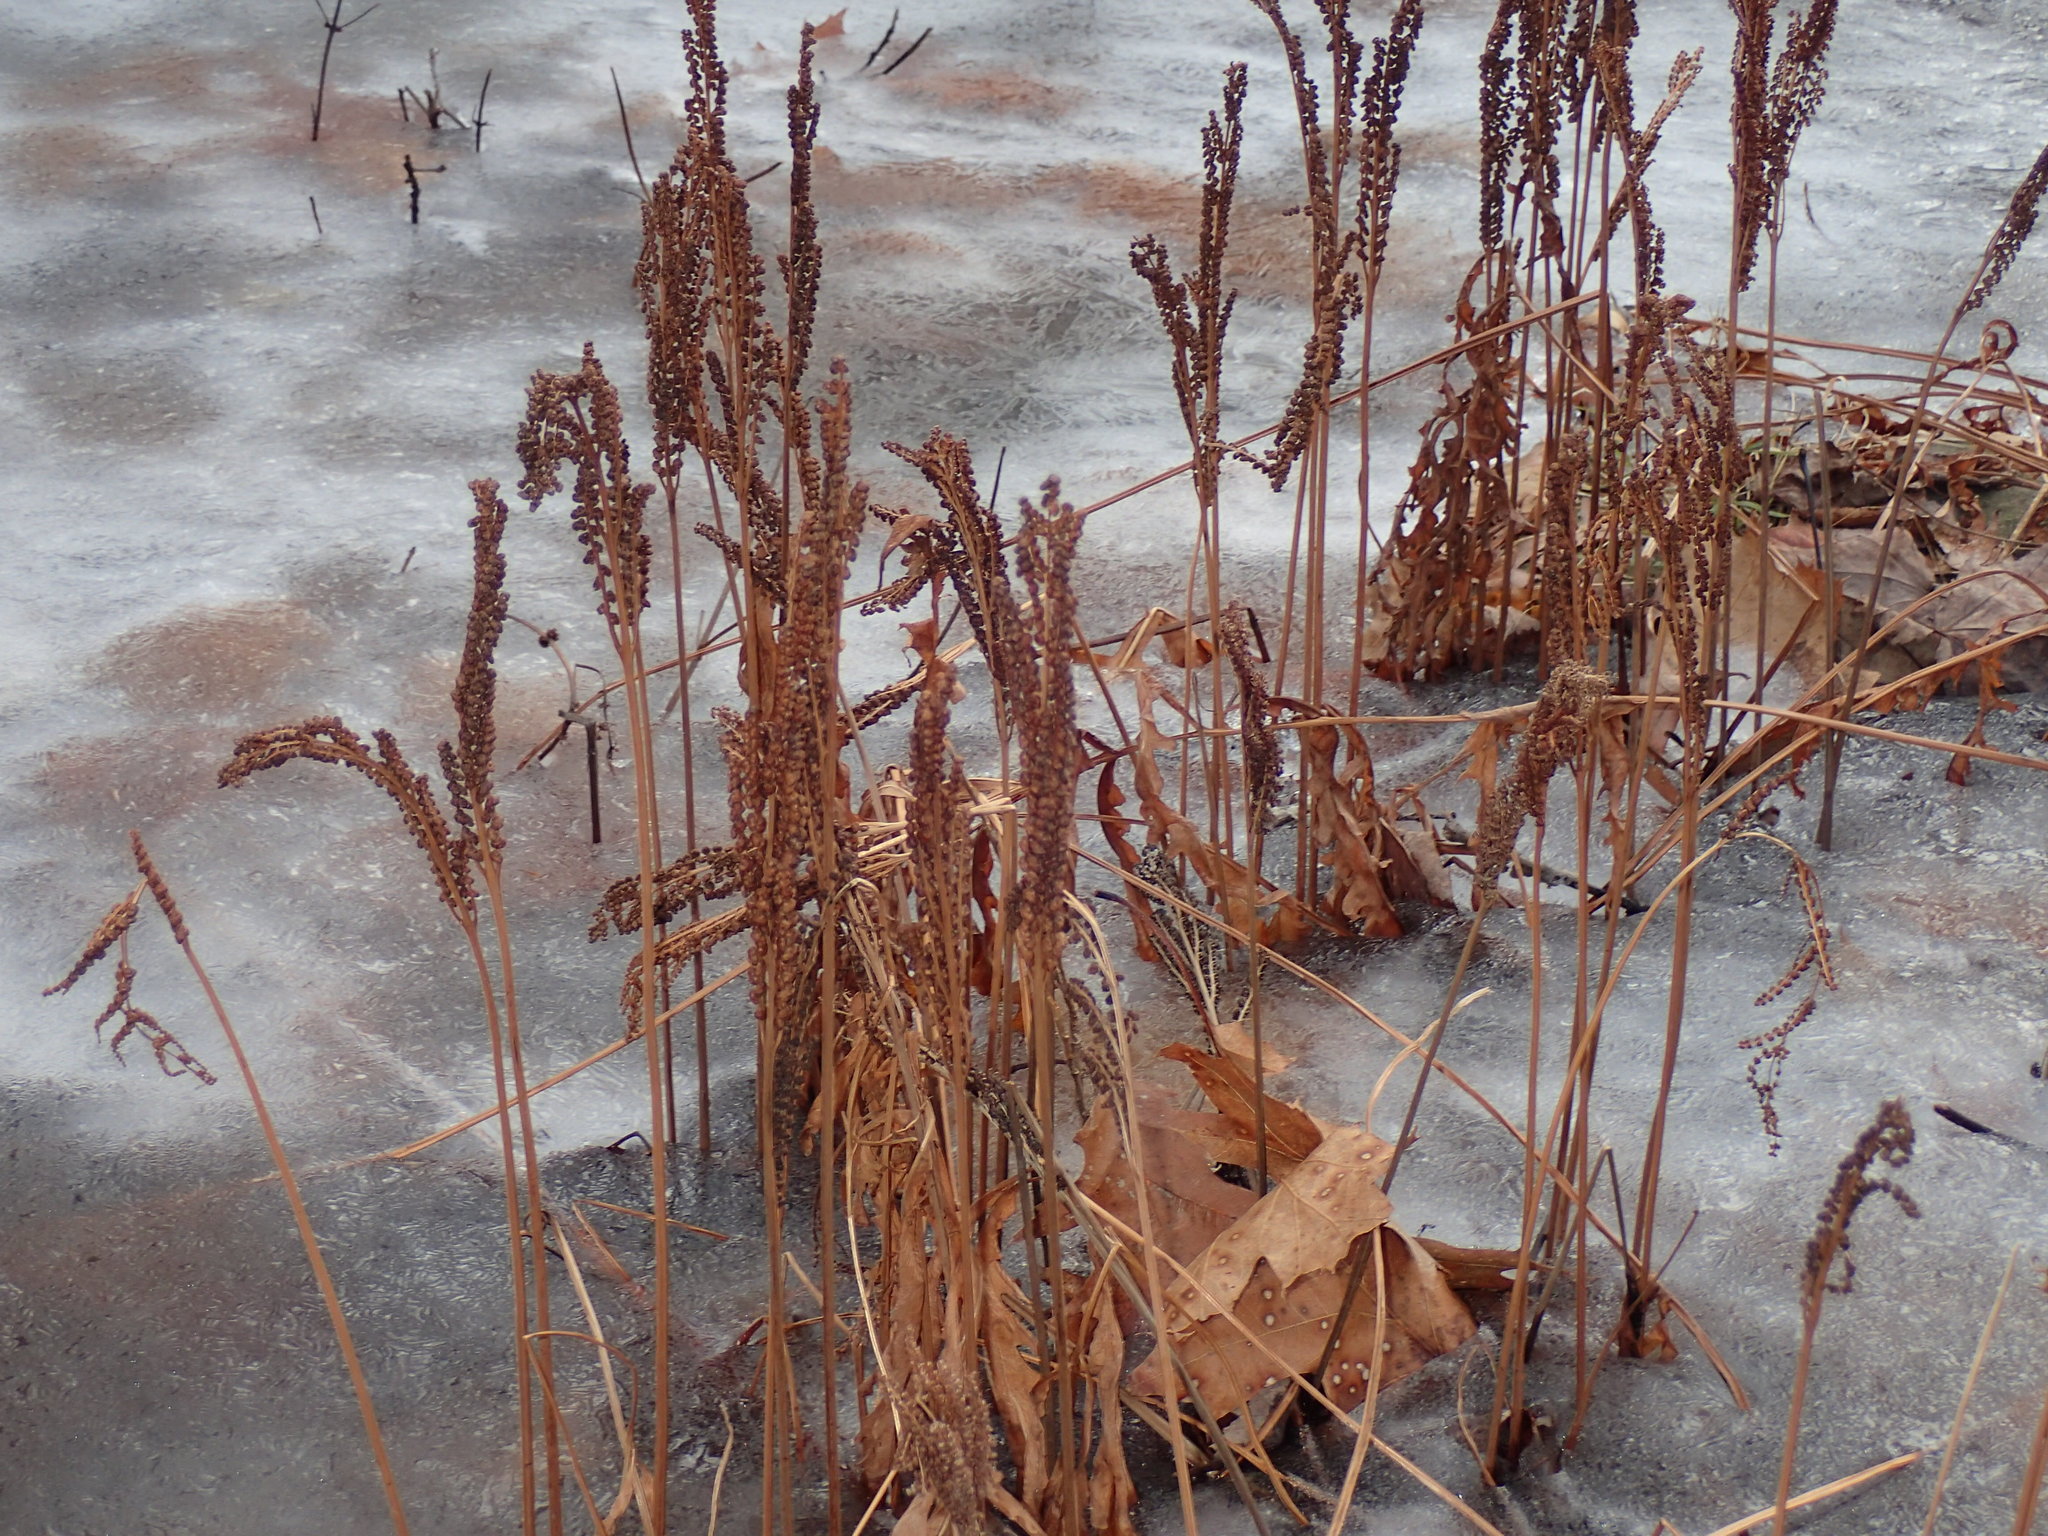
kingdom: Plantae
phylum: Tracheophyta
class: Polypodiopsida
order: Polypodiales
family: Onocleaceae
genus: Onoclea
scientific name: Onoclea sensibilis
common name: Sensitive fern
